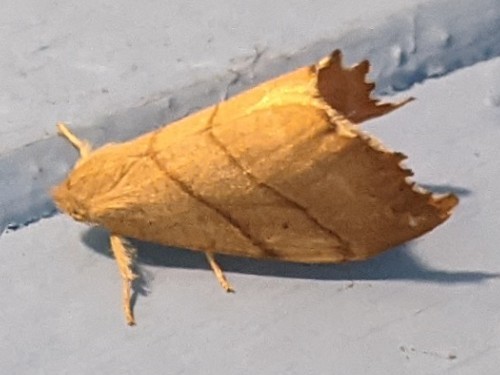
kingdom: Animalia
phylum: Arthropoda
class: Insecta
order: Lepidoptera
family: Drepanidae
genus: Falcaria
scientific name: Falcaria bilineata
